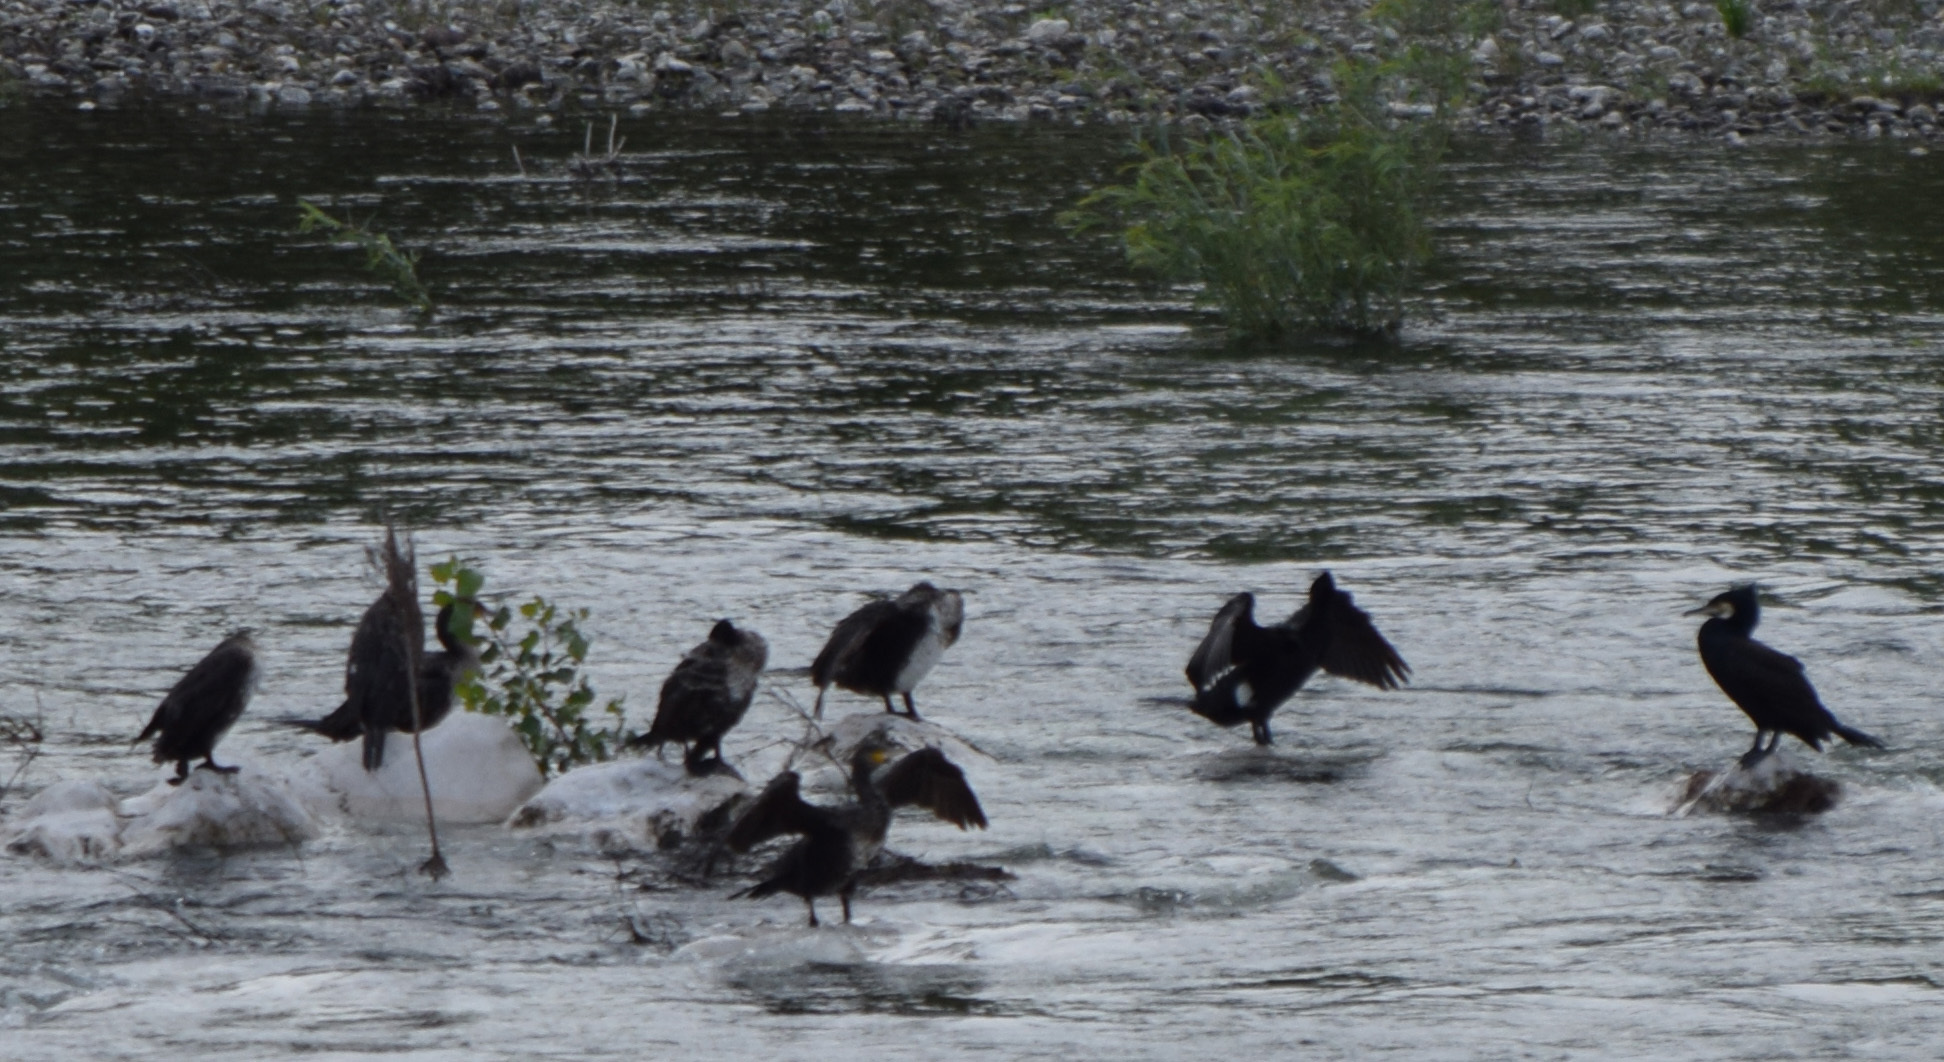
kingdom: Animalia
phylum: Chordata
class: Aves
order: Suliformes
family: Phalacrocoracidae
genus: Phalacrocorax
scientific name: Phalacrocorax carbo
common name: Great cormorant
